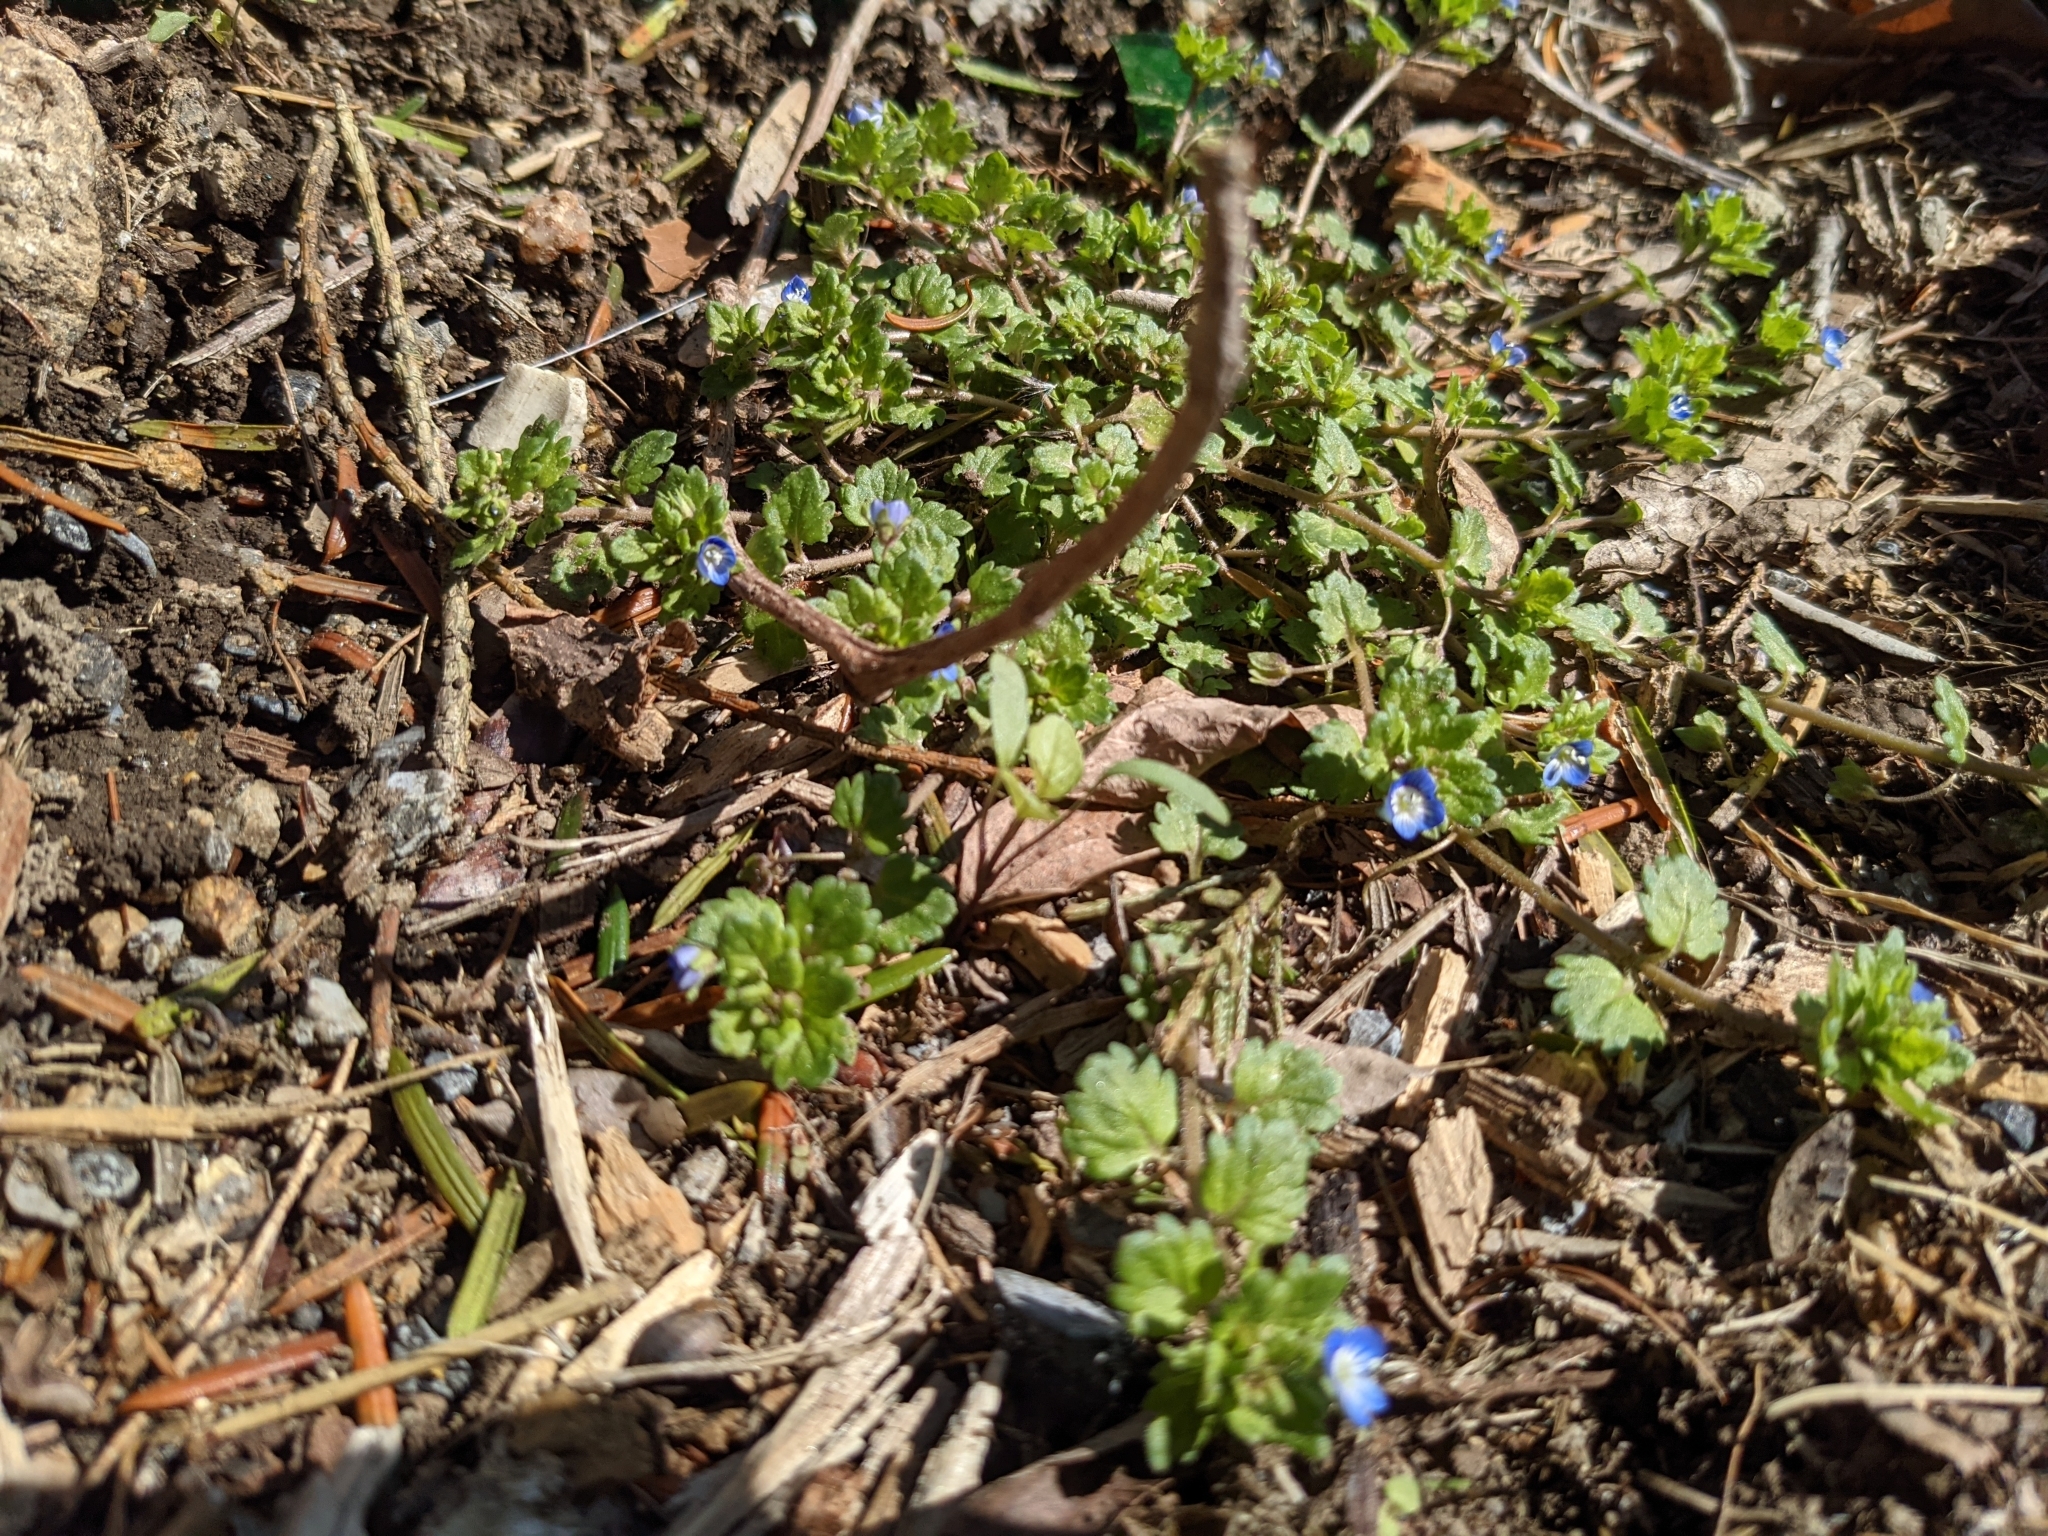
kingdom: Plantae
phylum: Tracheophyta
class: Magnoliopsida
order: Lamiales
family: Plantaginaceae
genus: Veronica
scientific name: Veronica persica
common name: Common field-speedwell
